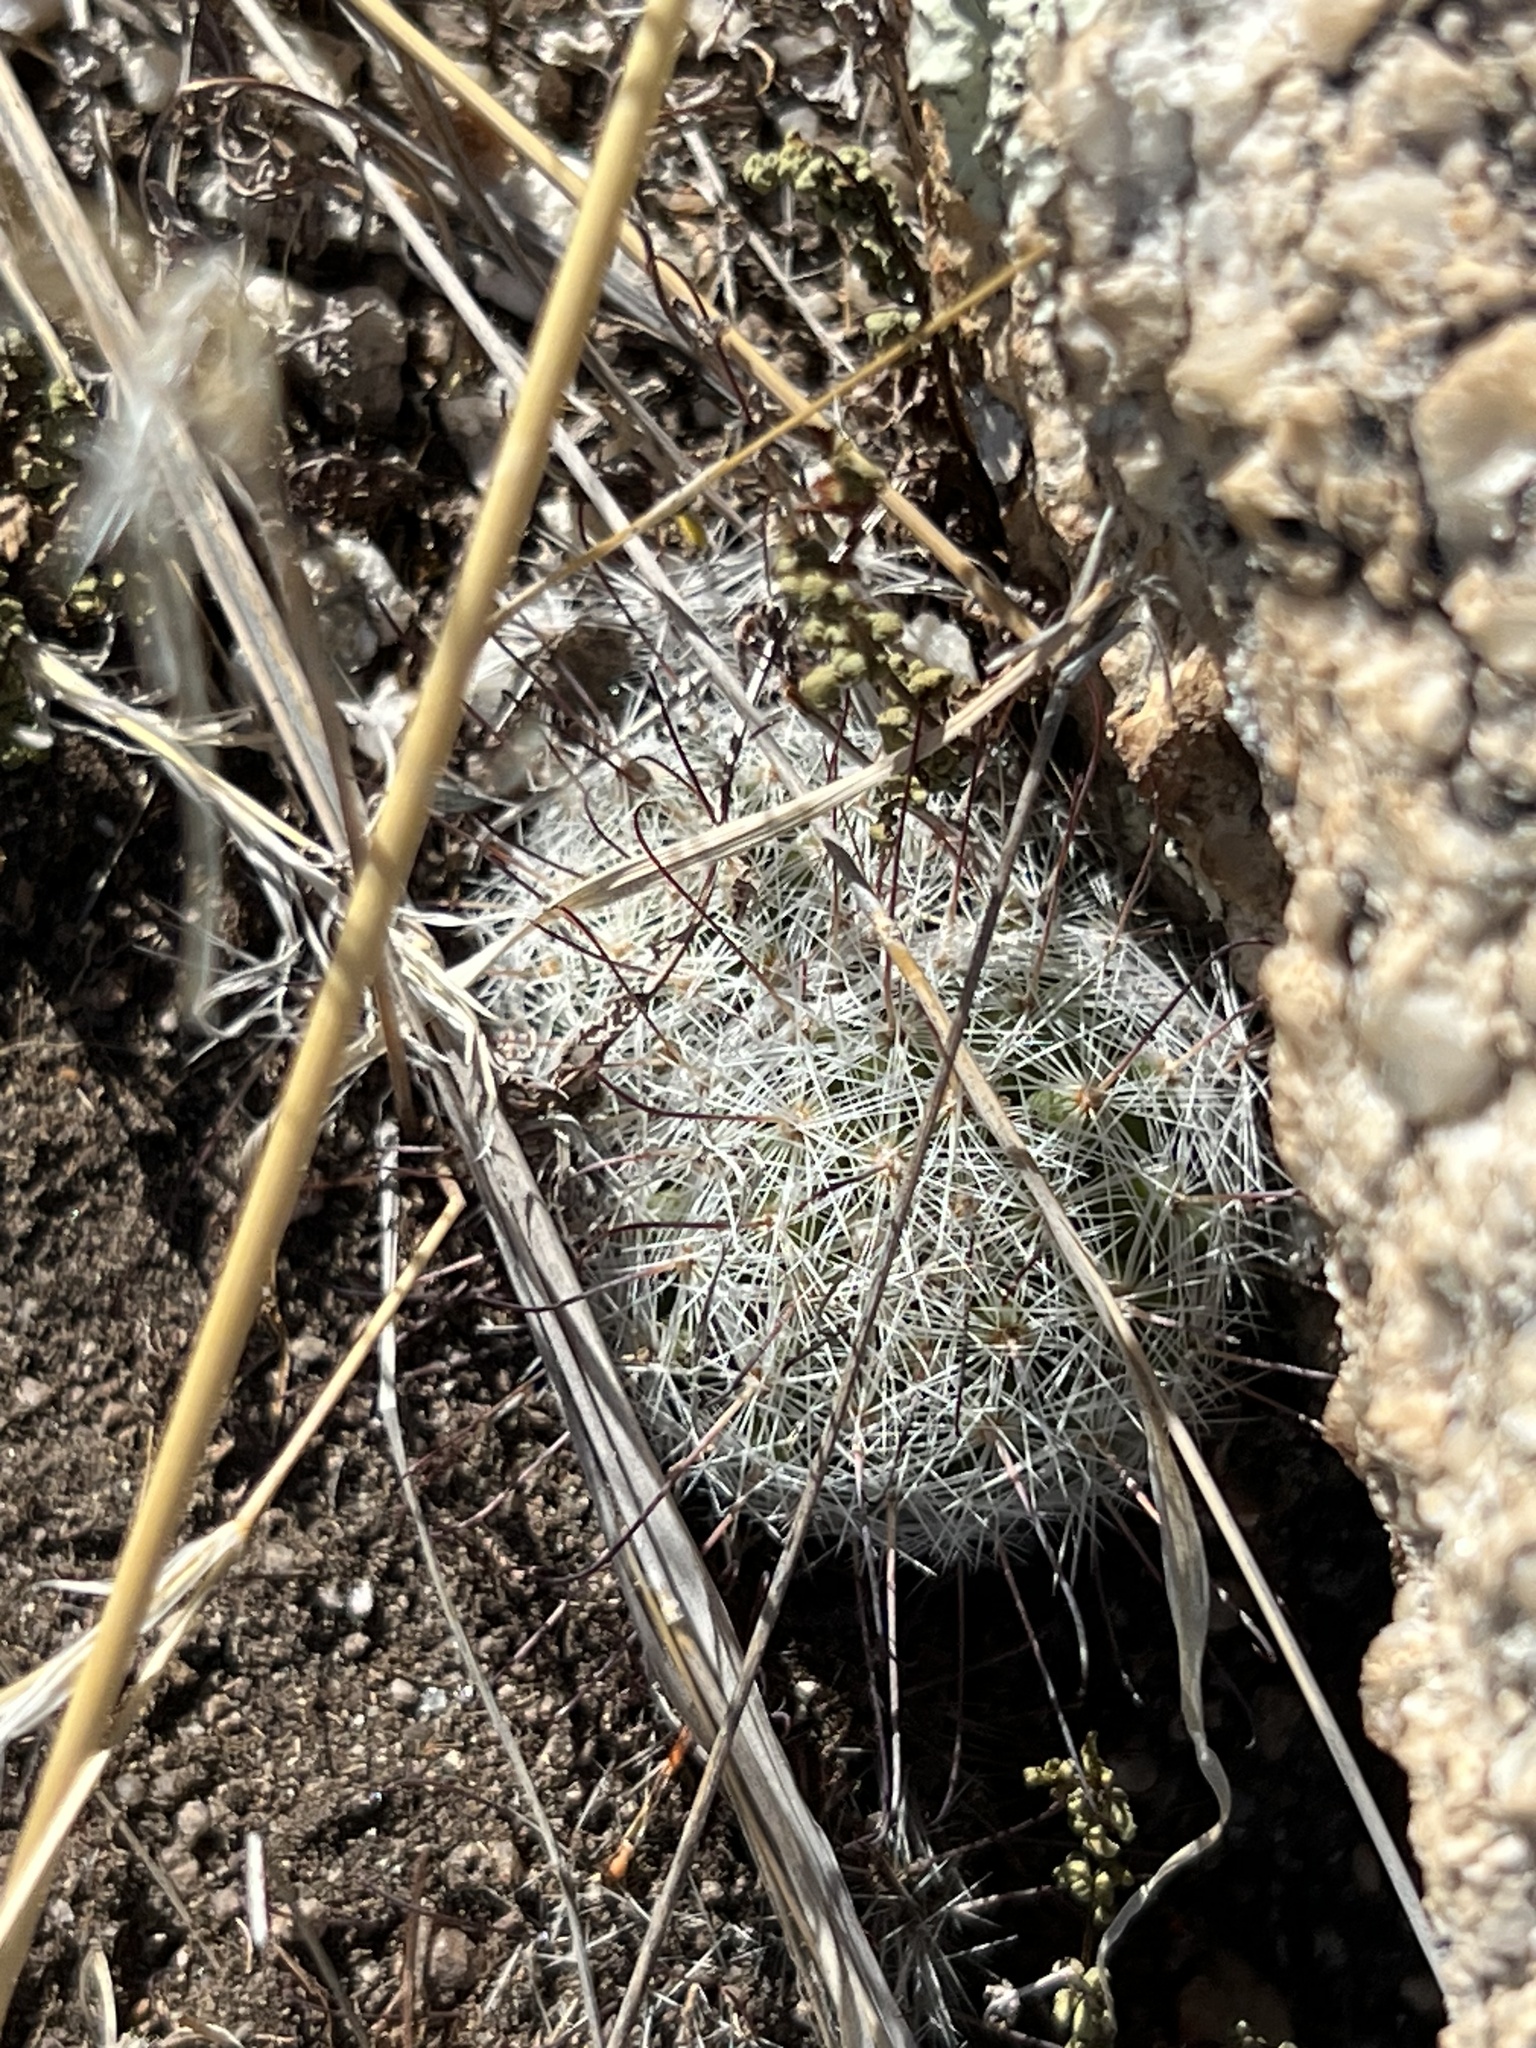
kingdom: Plantae
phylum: Tracheophyta
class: Magnoliopsida
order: Caryophyllales
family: Cactaceae
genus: Cochemiea
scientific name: Cochemiea grahamii
